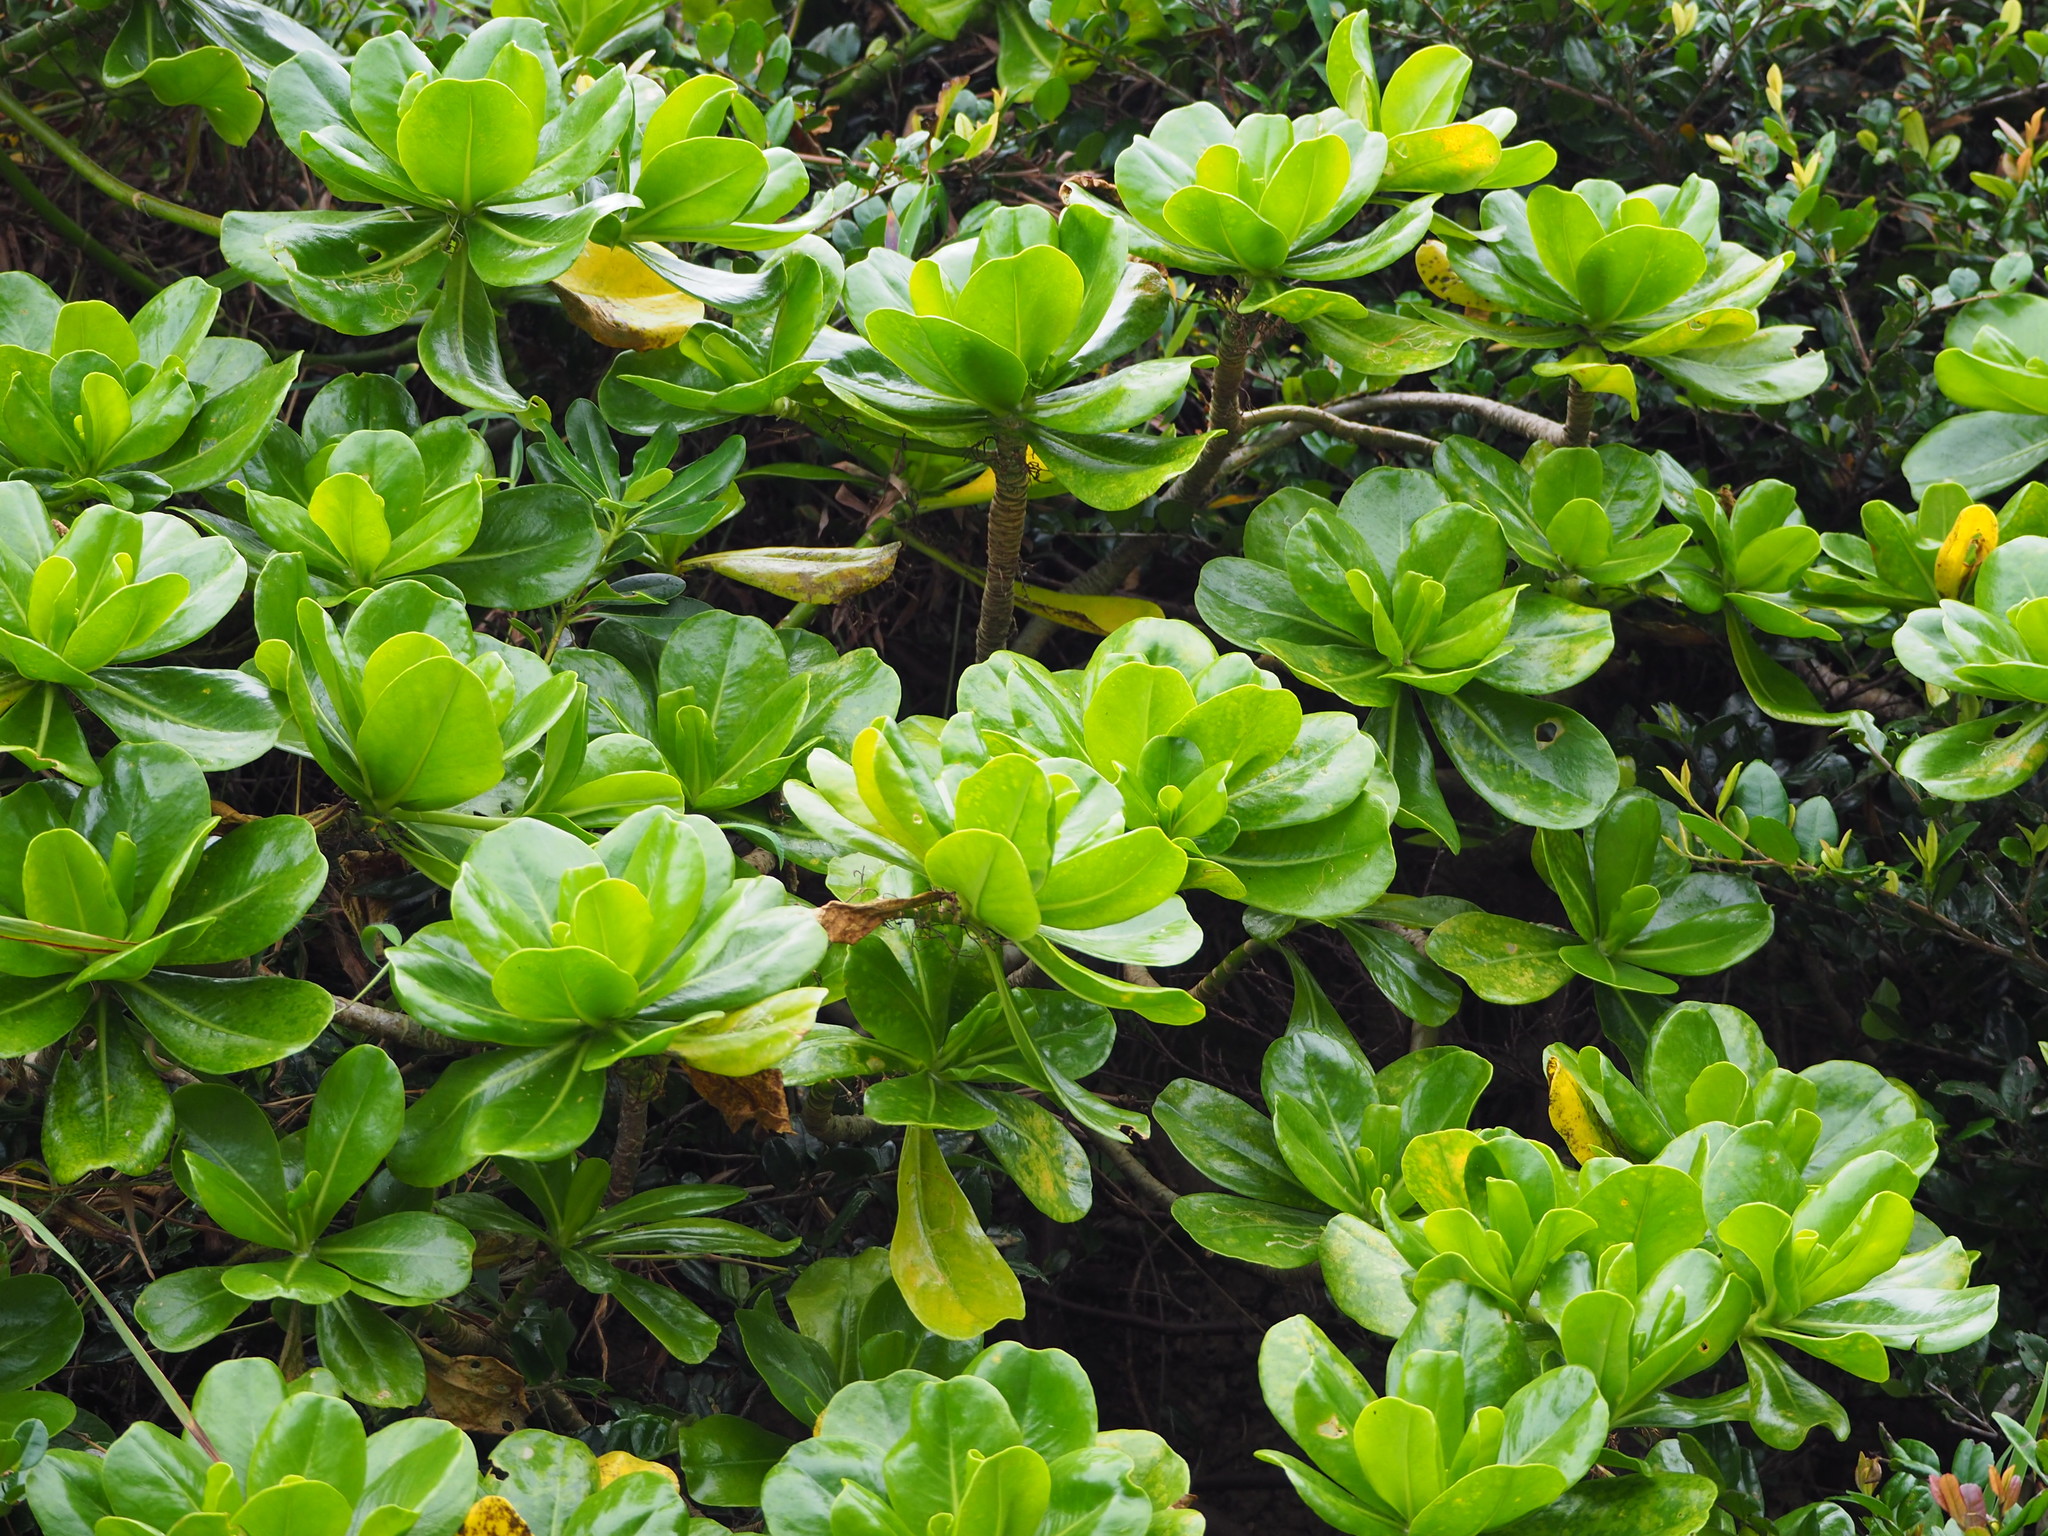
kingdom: Plantae
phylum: Tracheophyta
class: Magnoliopsida
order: Asterales
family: Goodeniaceae
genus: Scaevola
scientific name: Scaevola taccada
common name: Sea lettucetree
